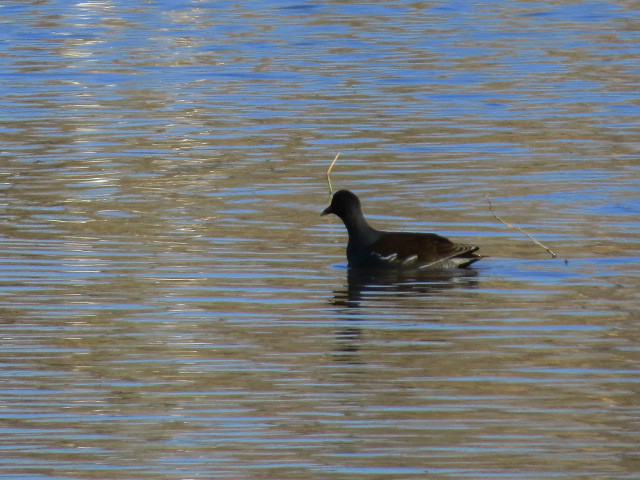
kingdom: Animalia
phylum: Chordata
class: Aves
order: Gruiformes
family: Rallidae
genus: Gallinula
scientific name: Gallinula chloropus
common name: Common moorhen
